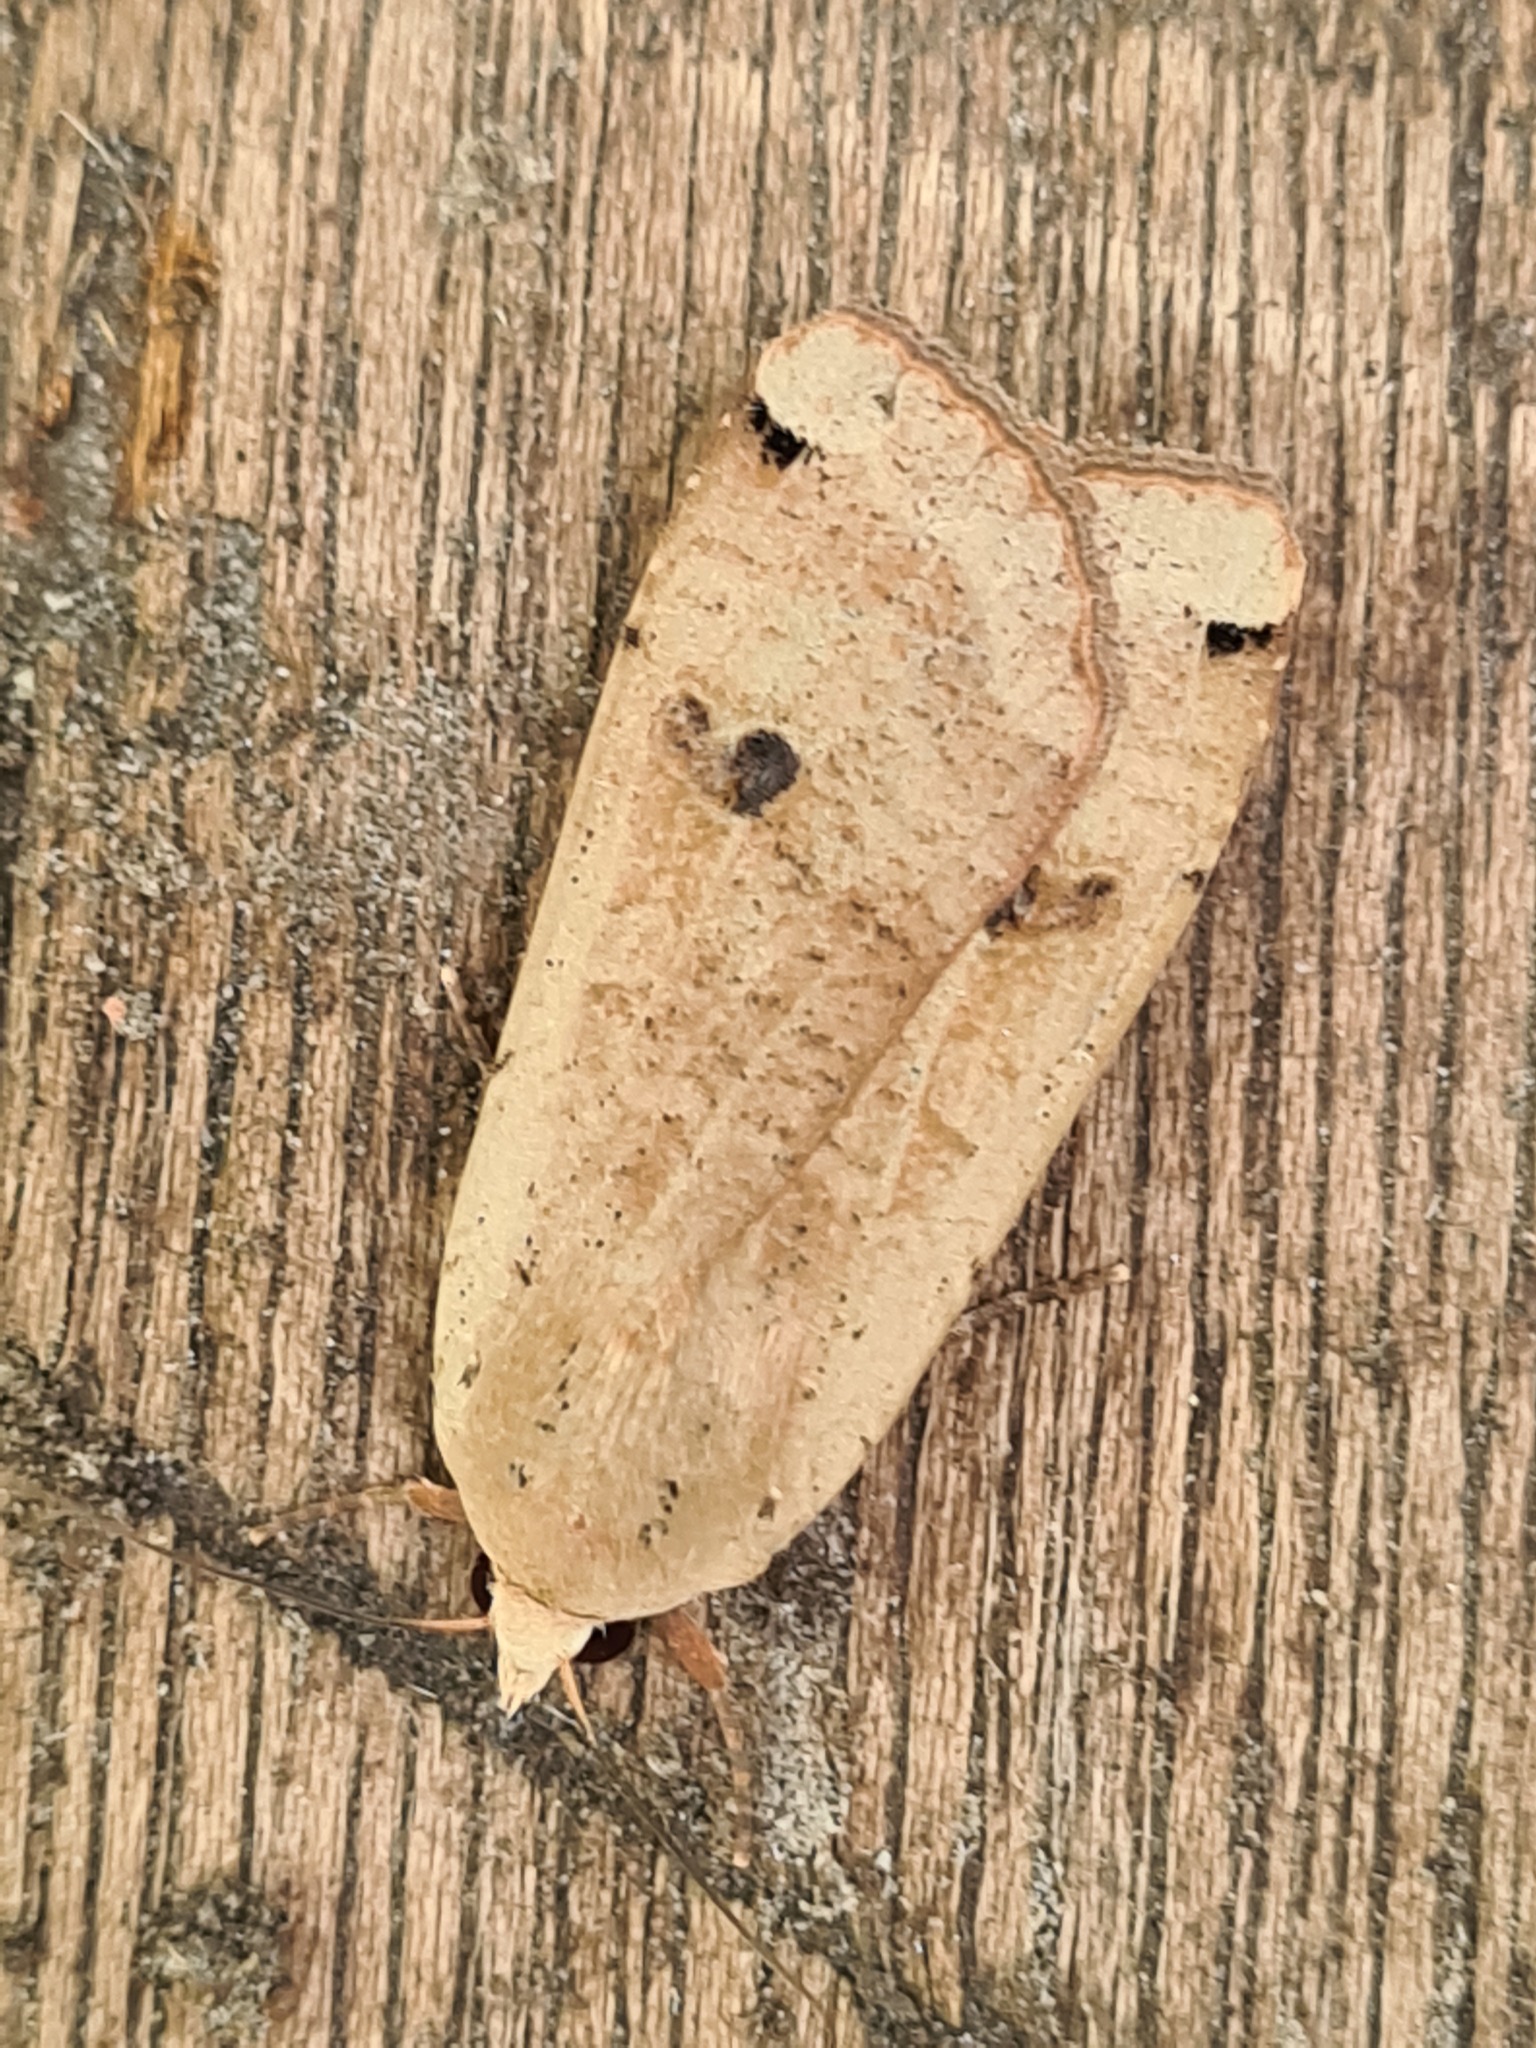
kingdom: Animalia
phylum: Arthropoda
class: Insecta
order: Lepidoptera
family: Noctuidae
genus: Noctua
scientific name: Noctua pronuba
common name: Large yellow underwing
